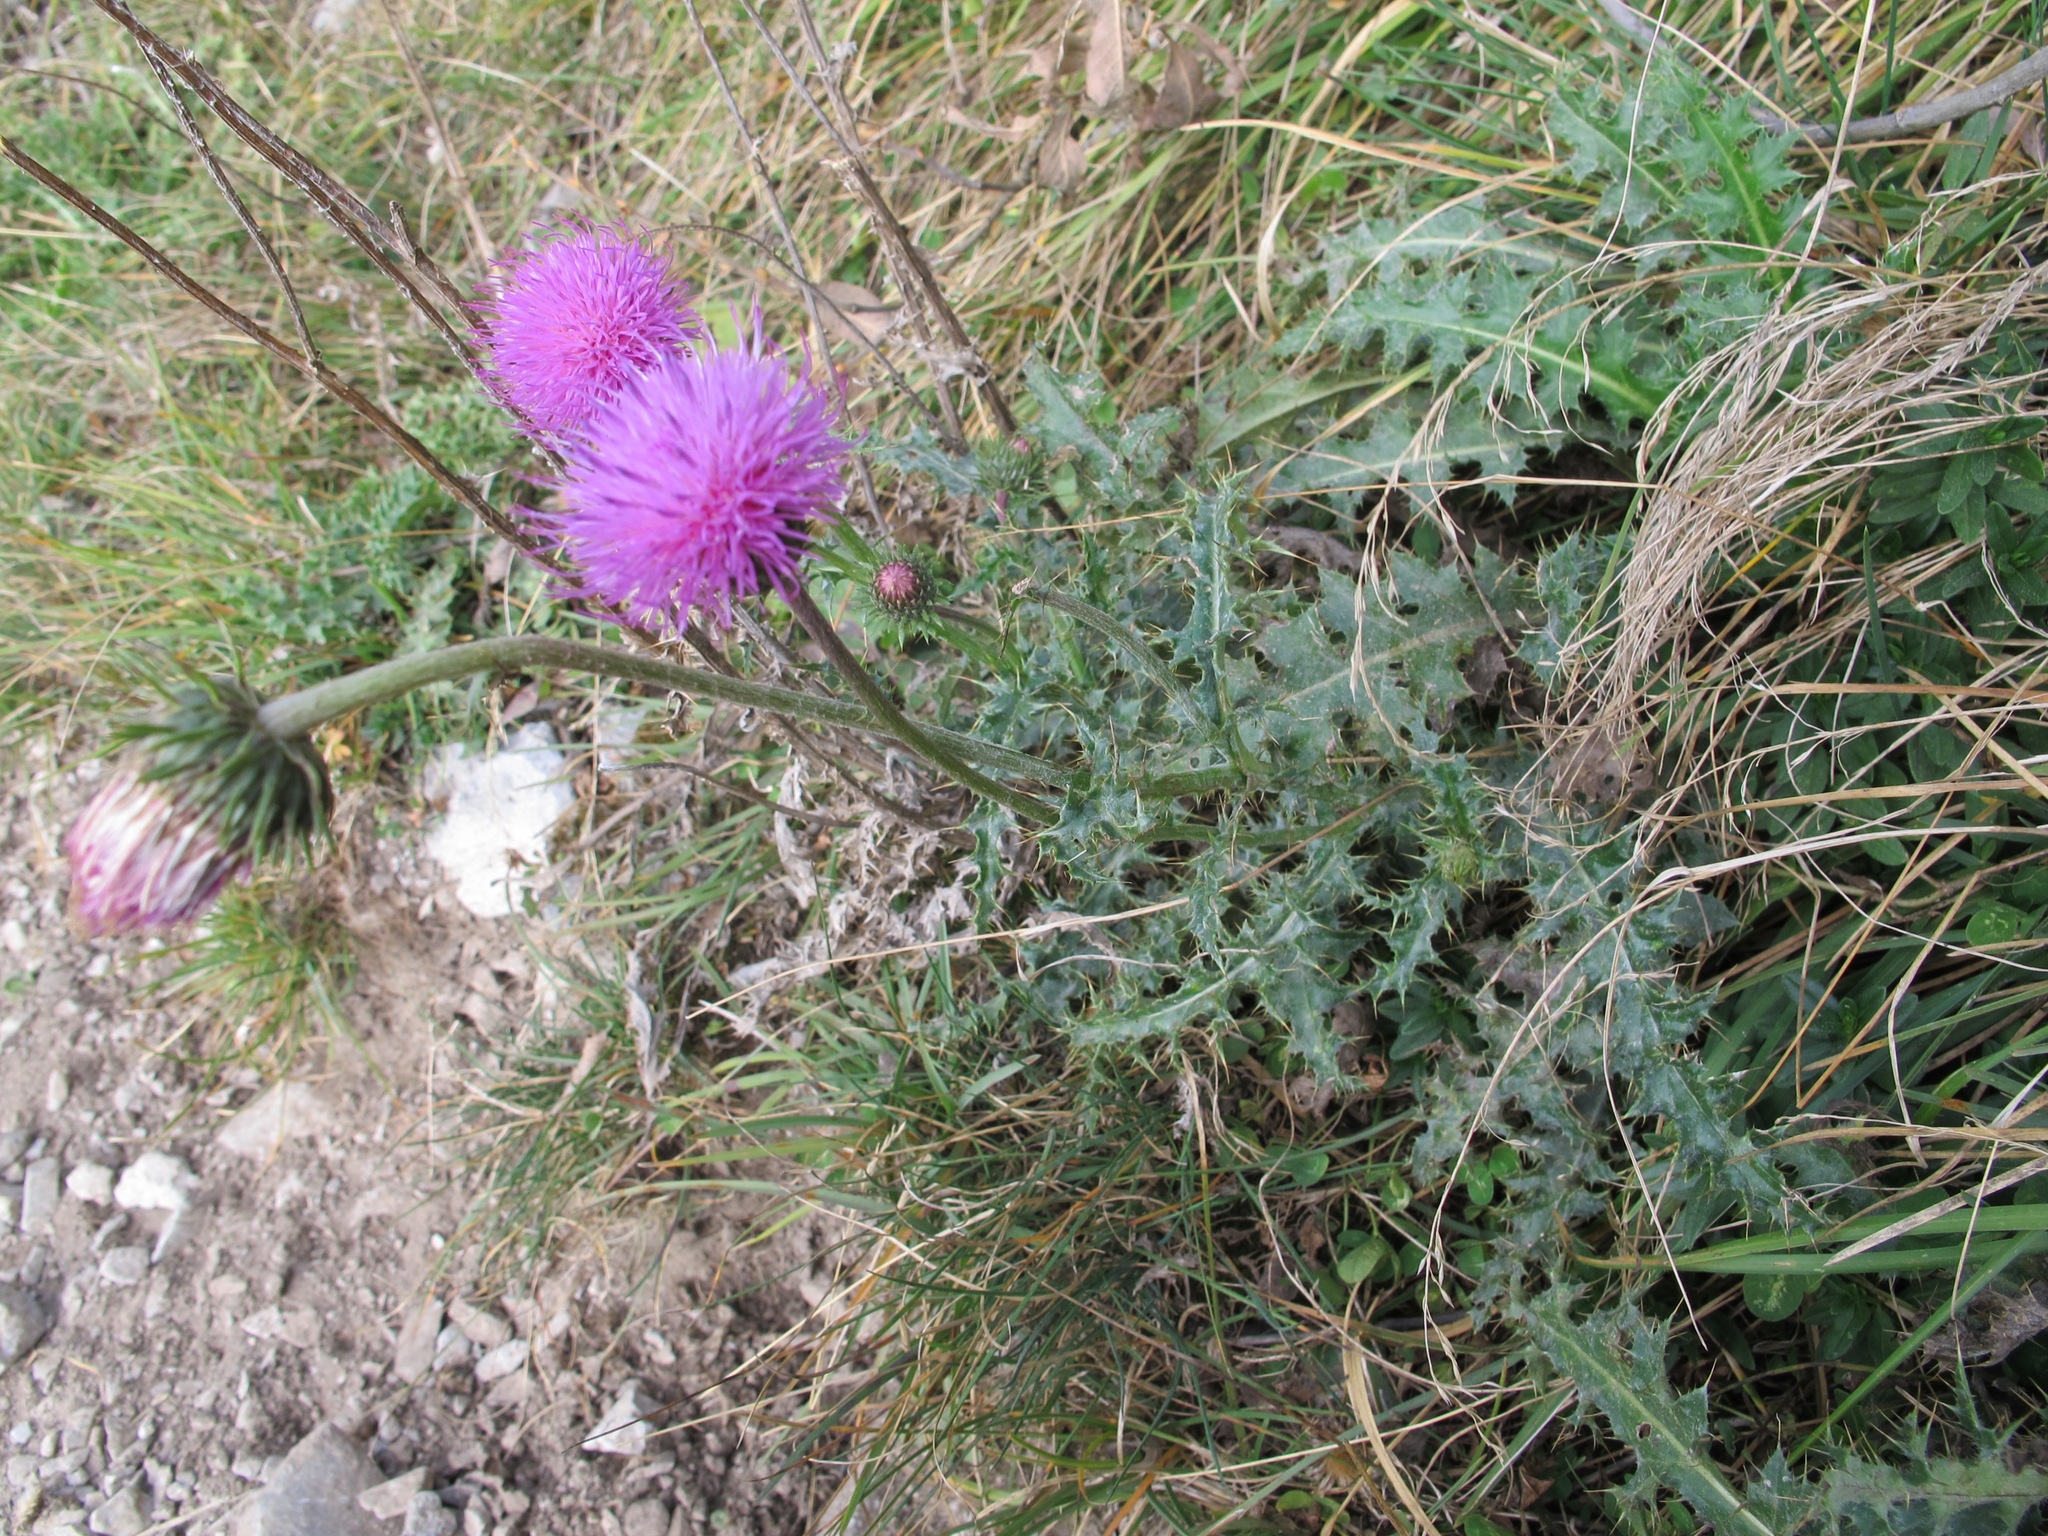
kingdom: Plantae
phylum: Tracheophyta
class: Magnoliopsida
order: Asterales
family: Asteraceae
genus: Carduus
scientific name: Carduus defloratus
